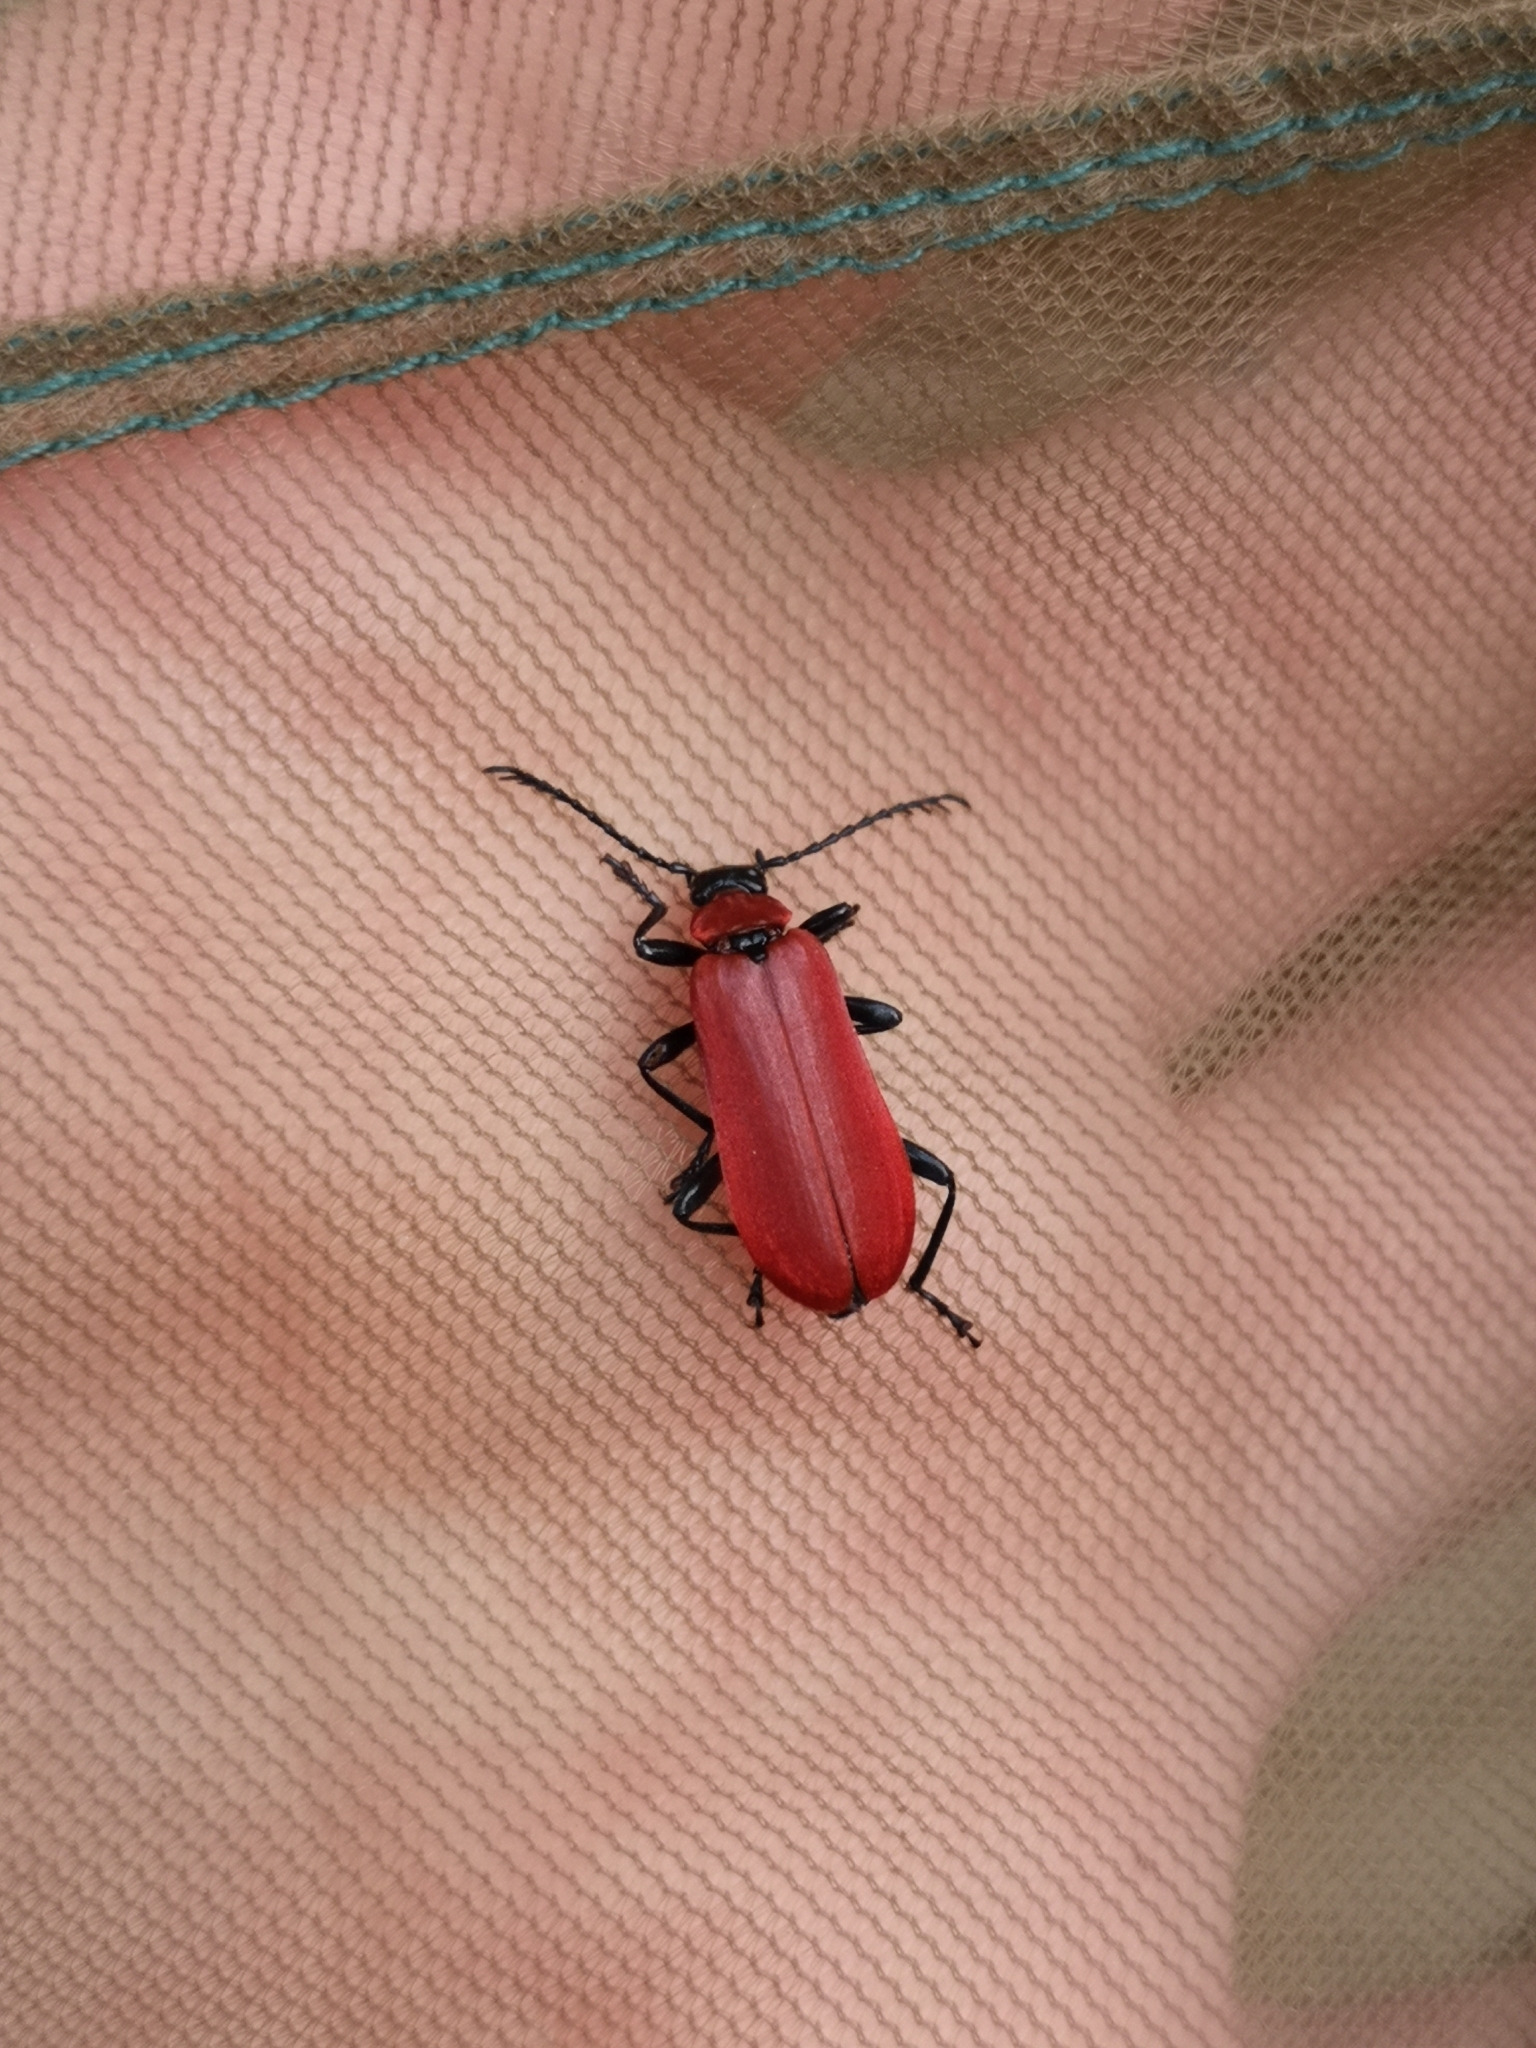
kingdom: Animalia
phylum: Arthropoda
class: Insecta
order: Coleoptera
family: Pyrochroidae
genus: Pyrochroa
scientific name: Pyrochroa coccinea
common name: Black-headed cardinal beetle
